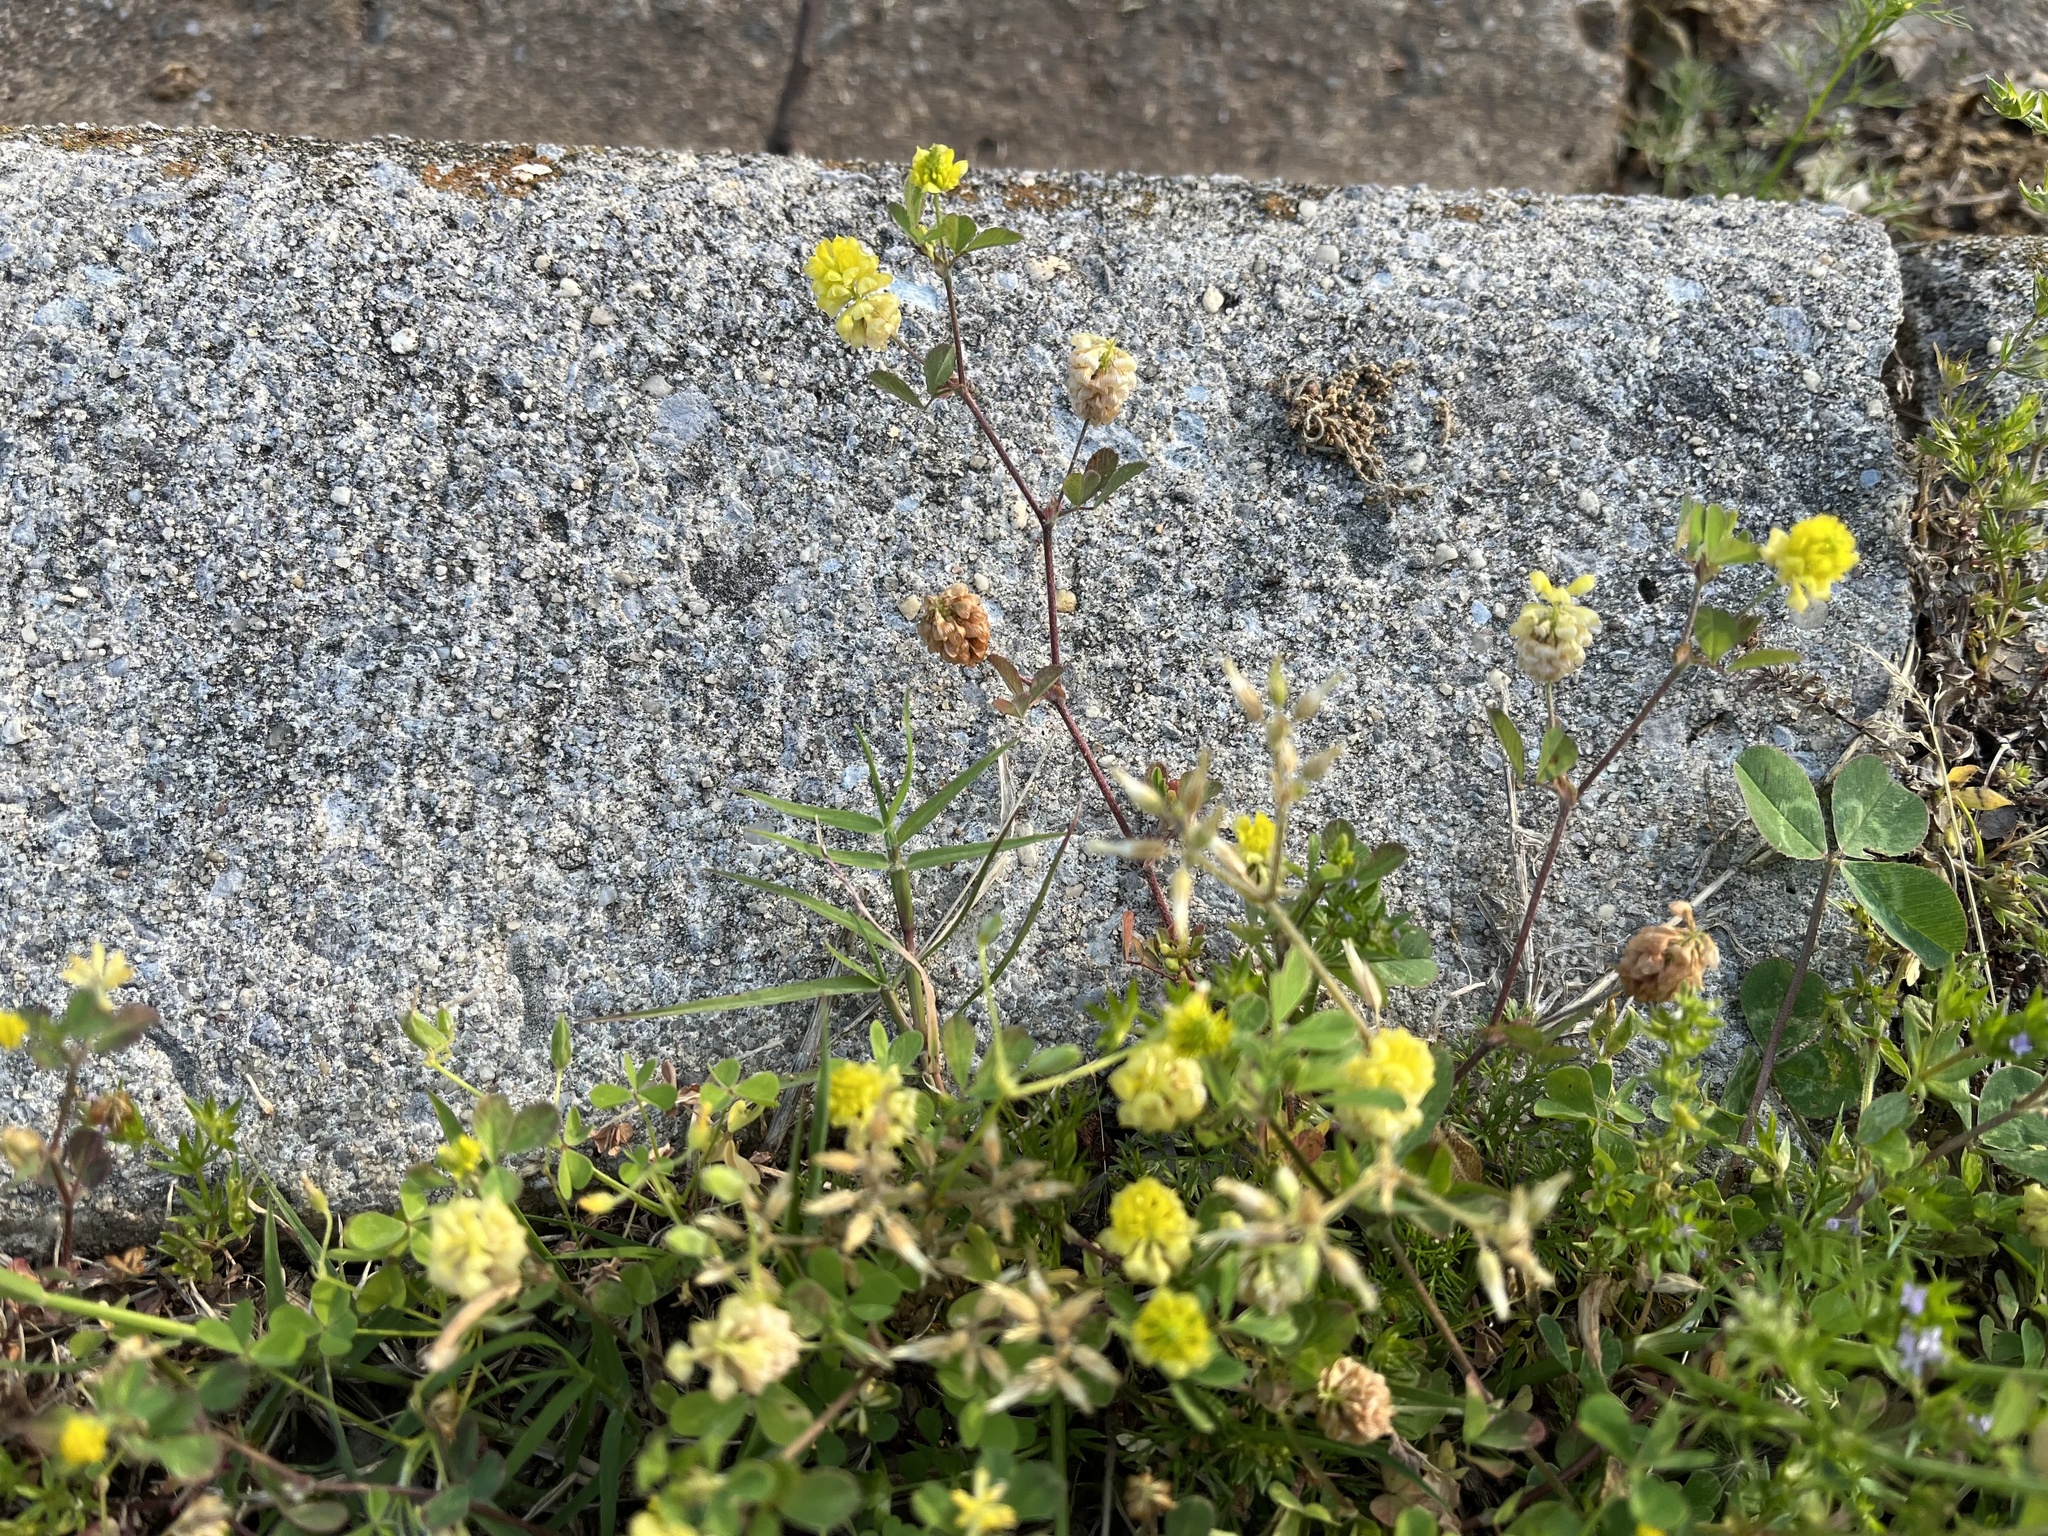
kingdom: Plantae
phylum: Tracheophyta
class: Magnoliopsida
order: Fabales
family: Fabaceae
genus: Trifolium
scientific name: Trifolium campestre
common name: Field clover
